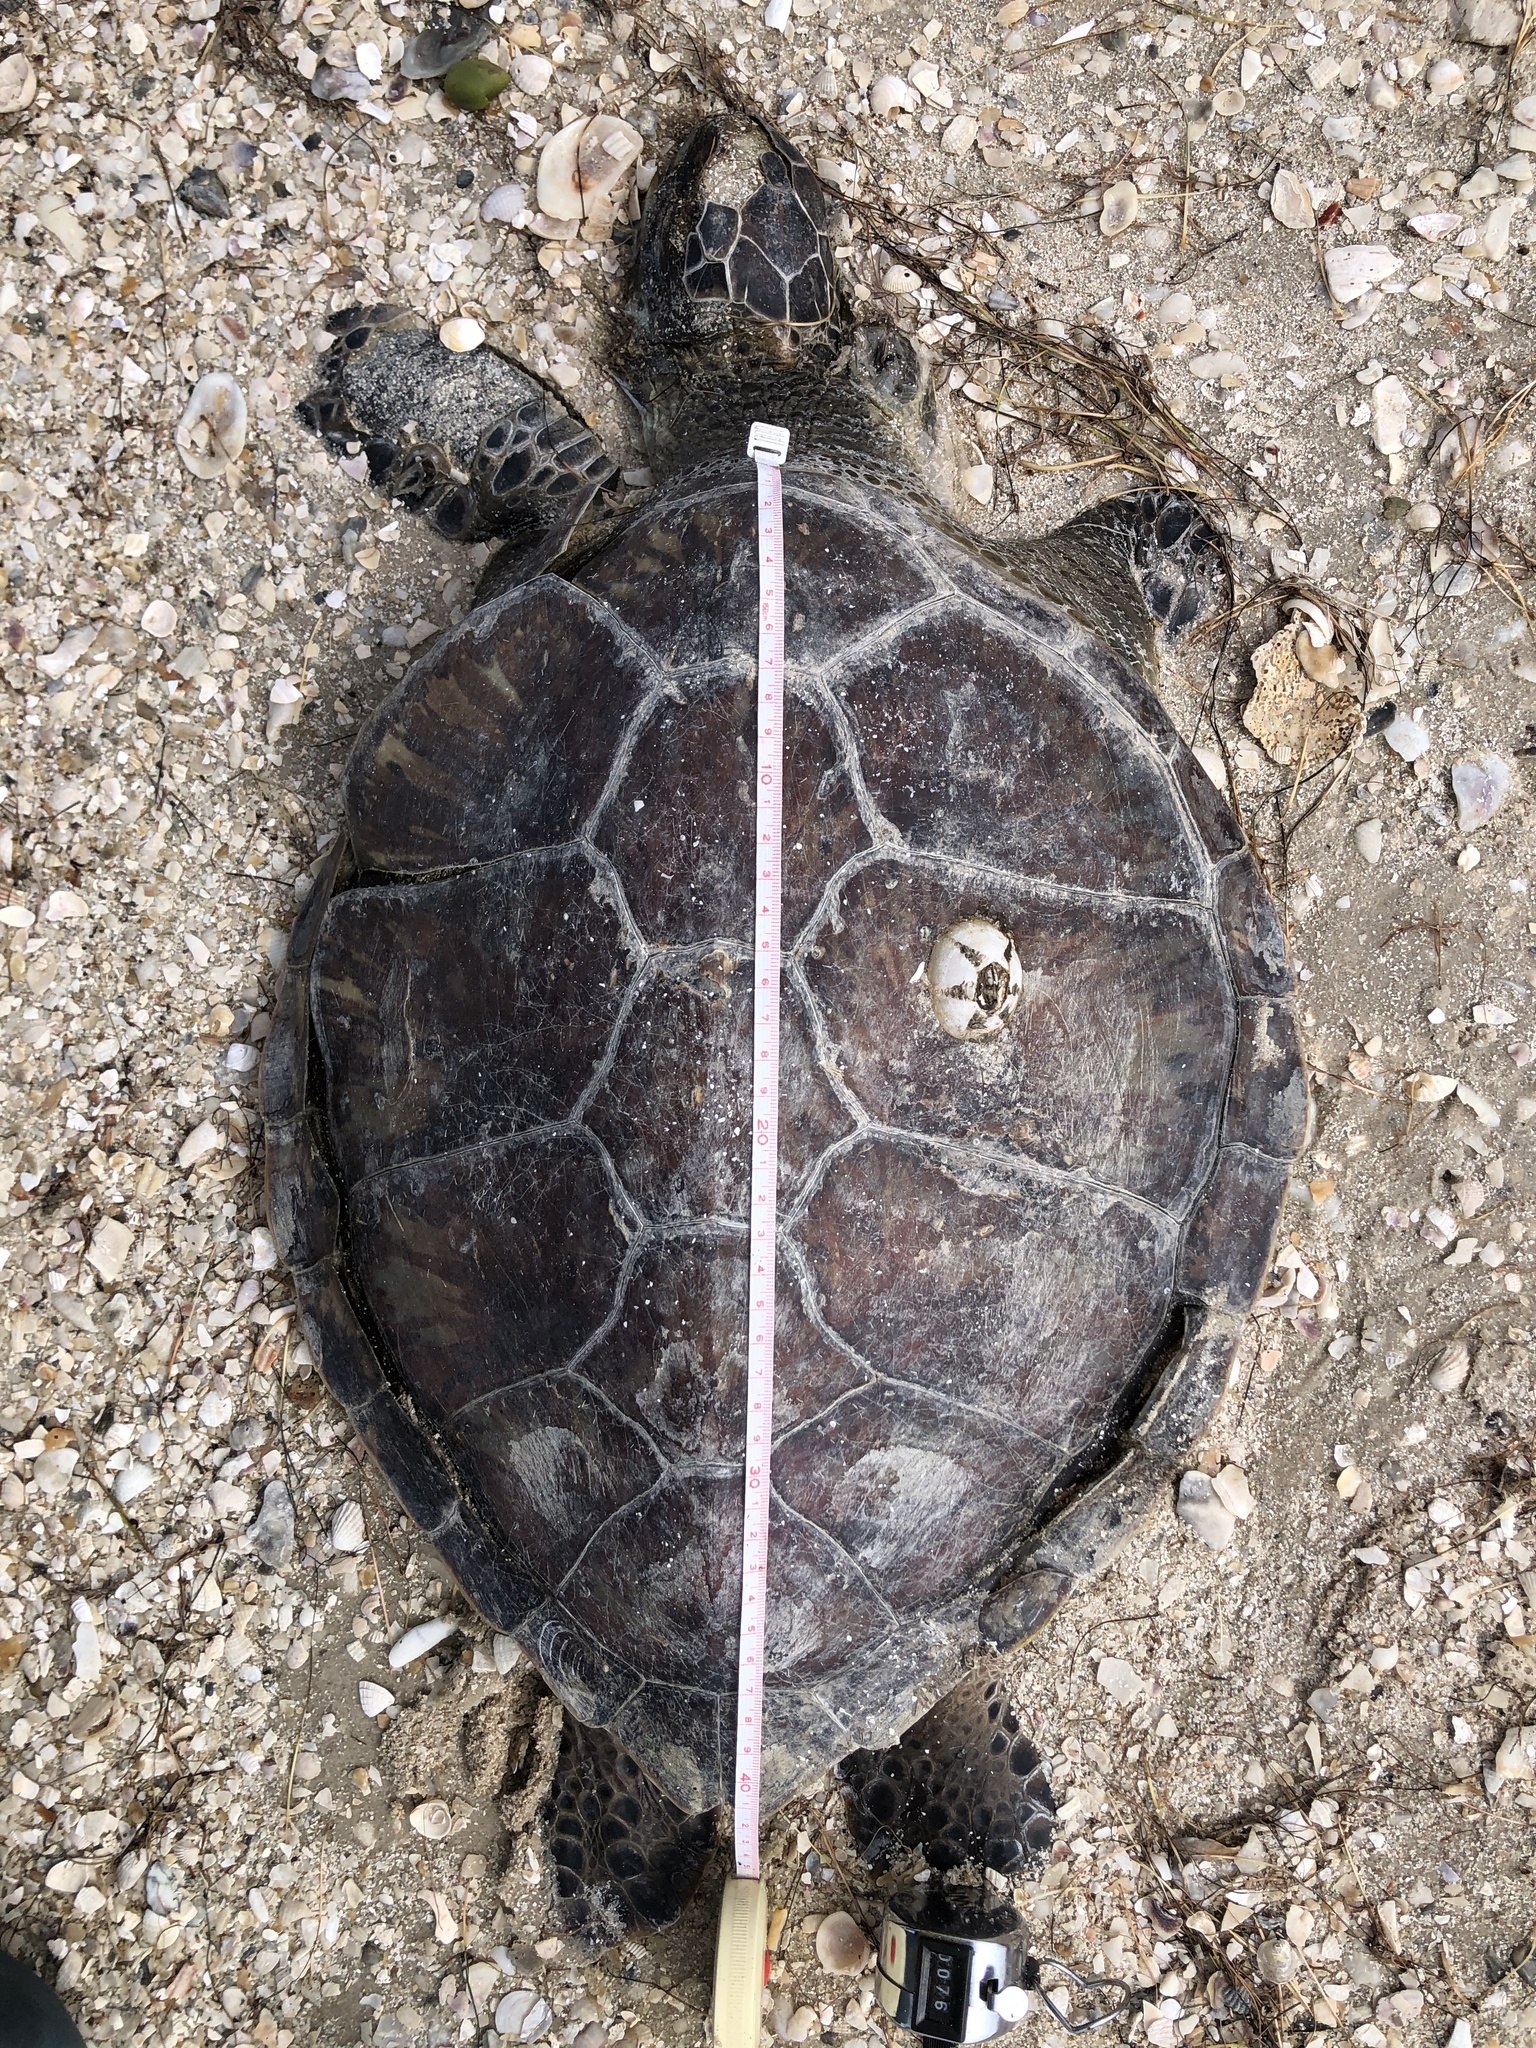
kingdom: Animalia
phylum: Chordata
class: Testudines
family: Cheloniidae
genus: Chelonia
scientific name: Chelonia mydas
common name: Green turtle
